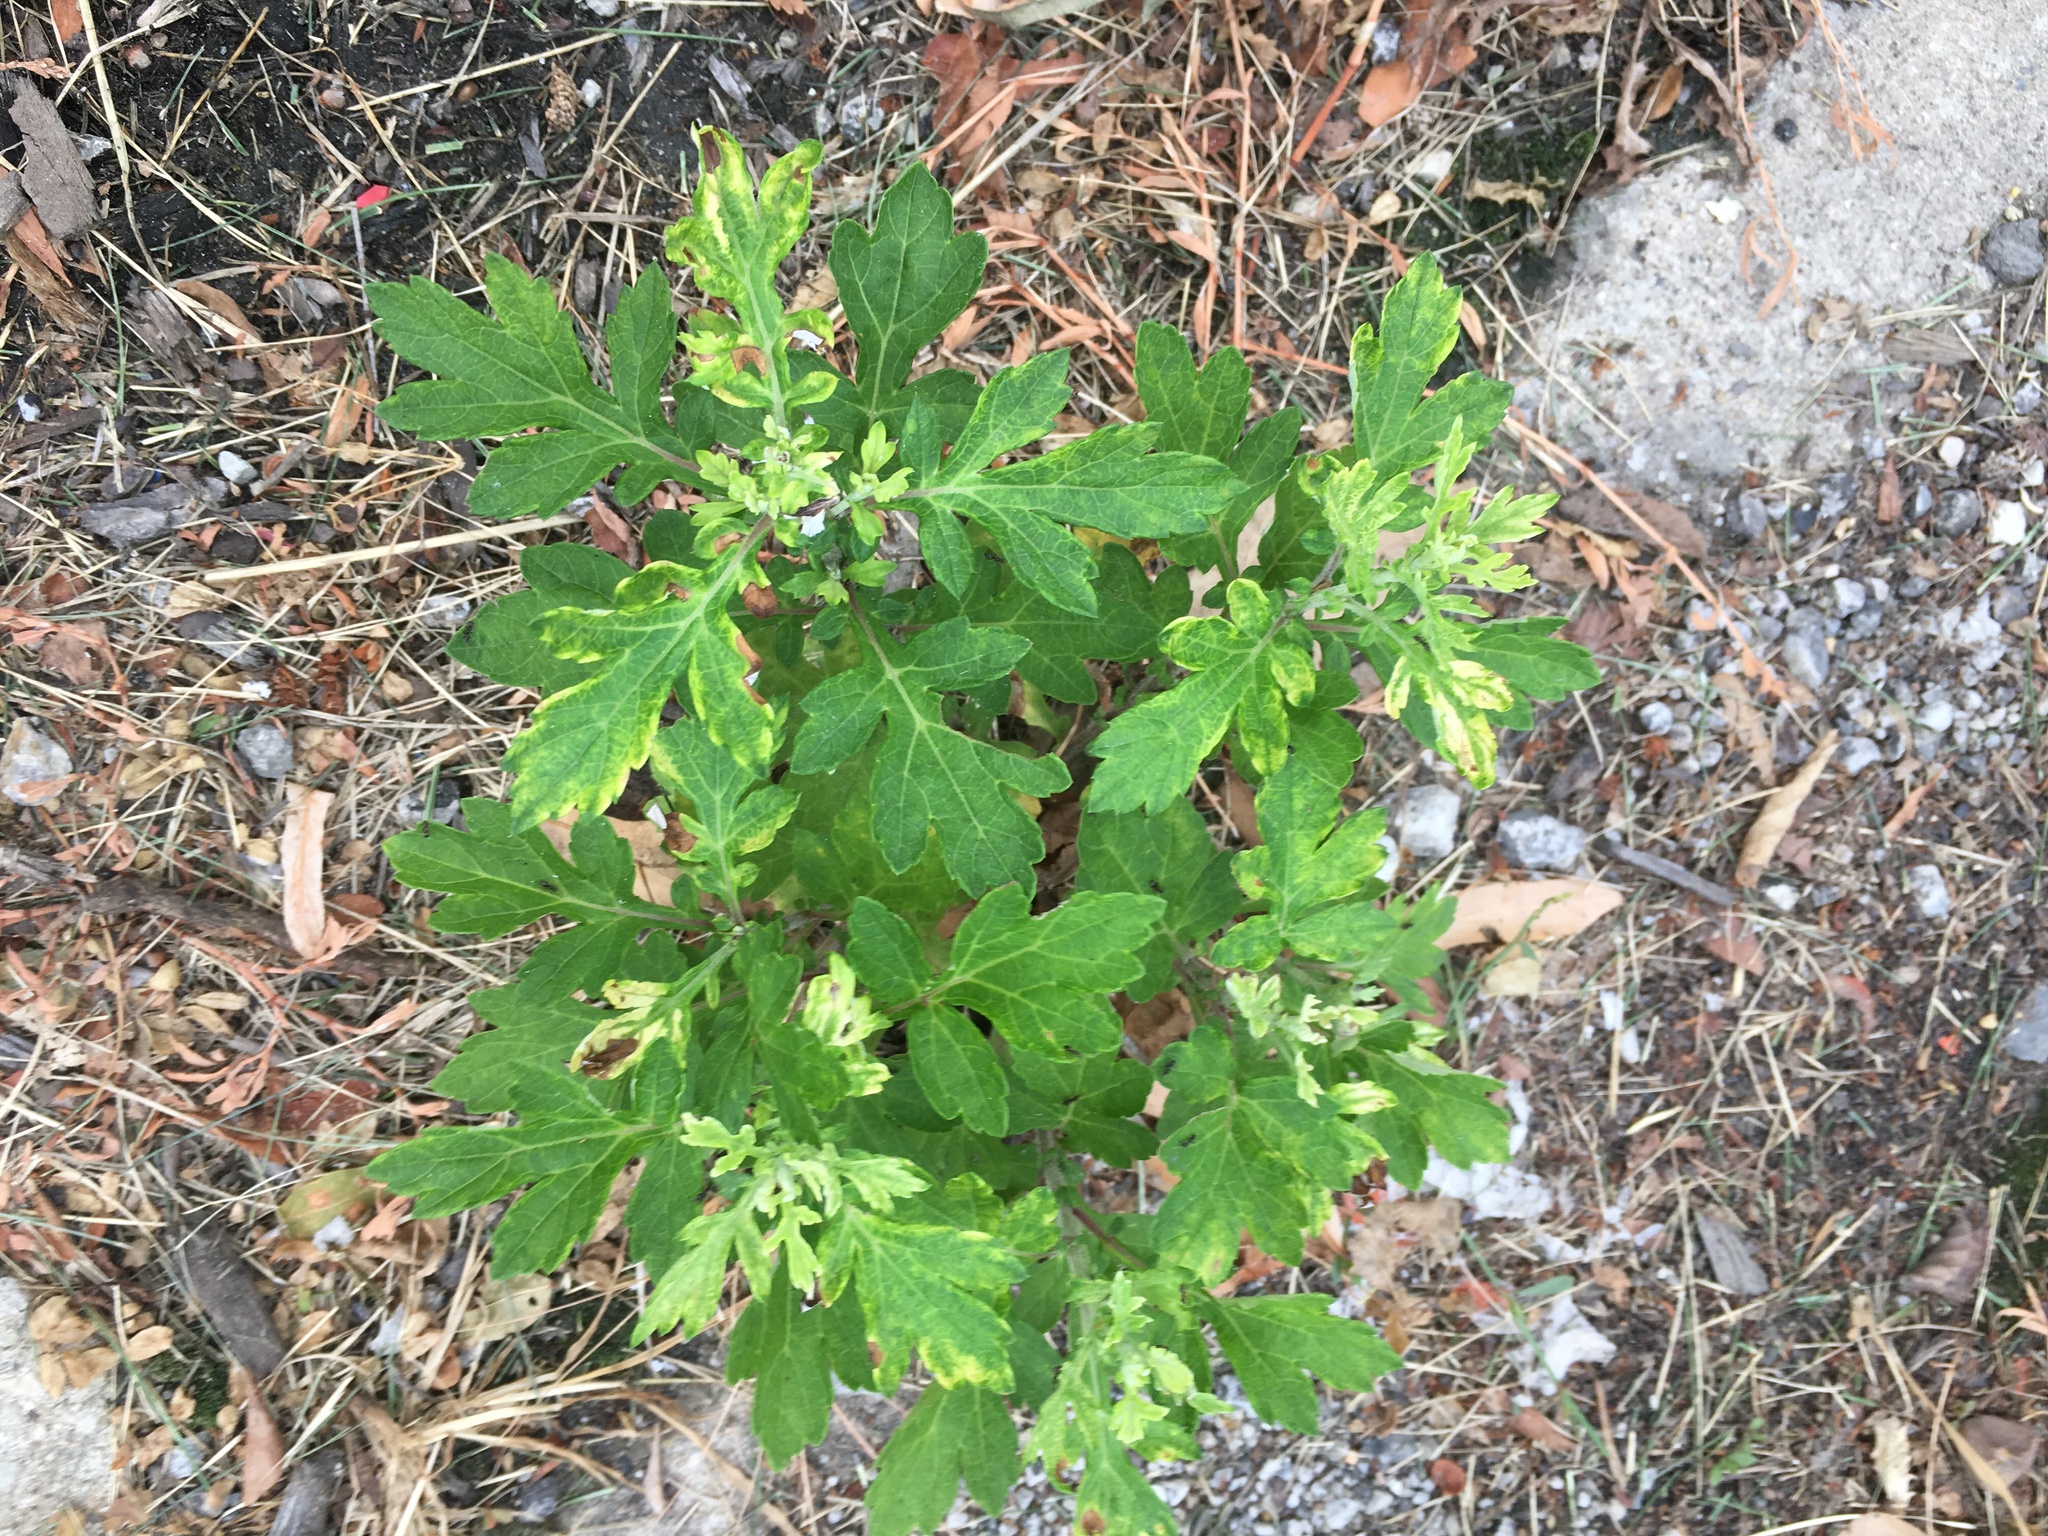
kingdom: Plantae
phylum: Tracheophyta
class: Magnoliopsida
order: Asterales
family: Asteraceae
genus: Artemisia
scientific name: Artemisia vulgaris
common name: Mugwort
